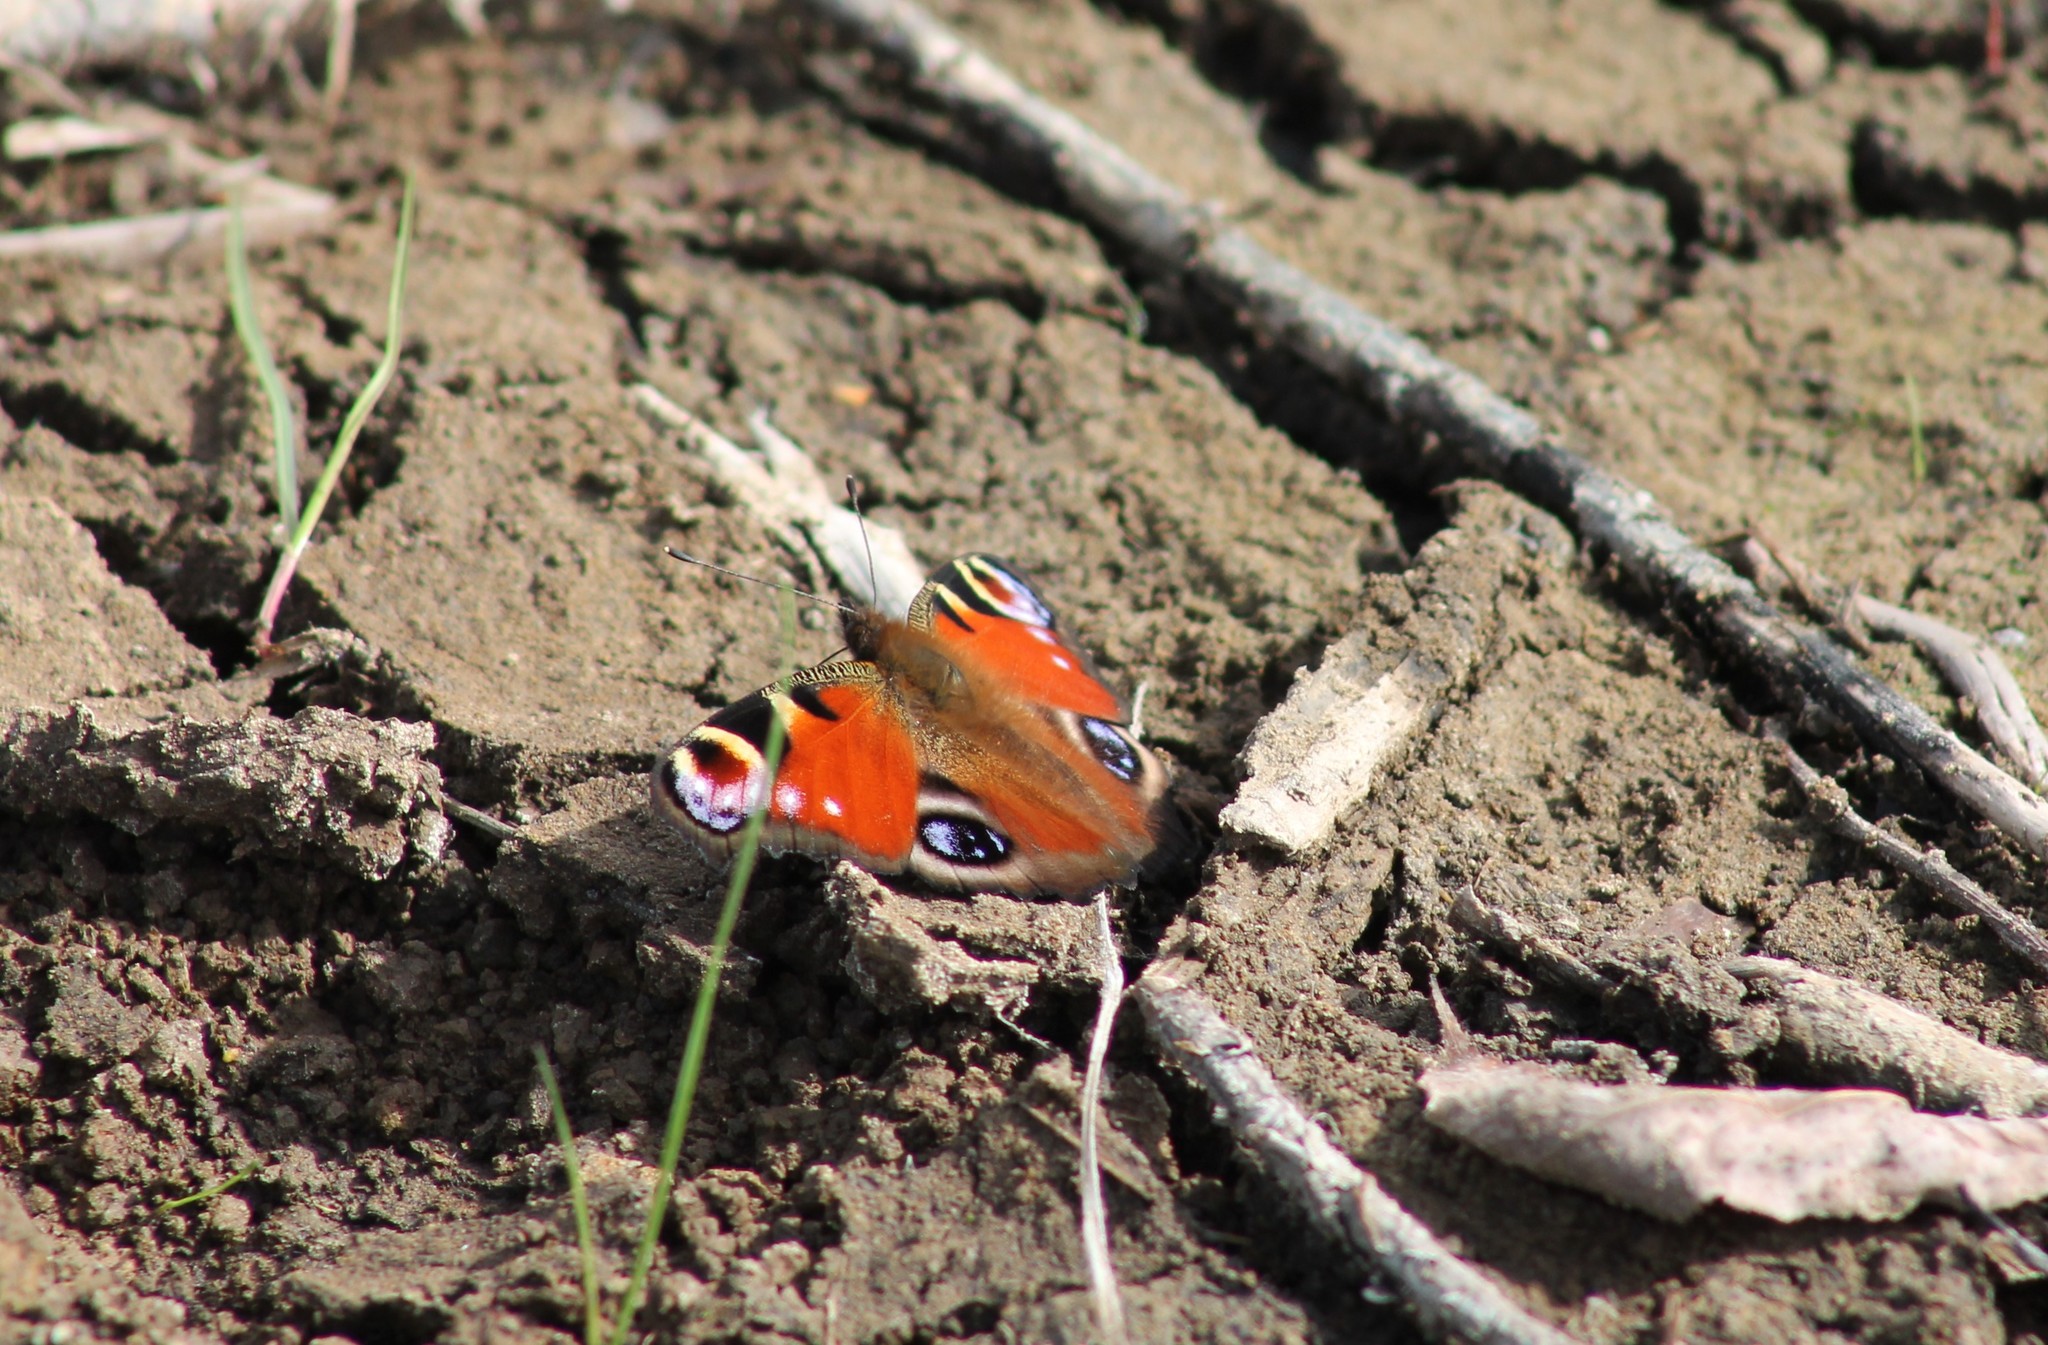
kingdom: Animalia
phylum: Arthropoda
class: Insecta
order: Lepidoptera
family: Nymphalidae
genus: Aglais
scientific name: Aglais io
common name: Peacock
